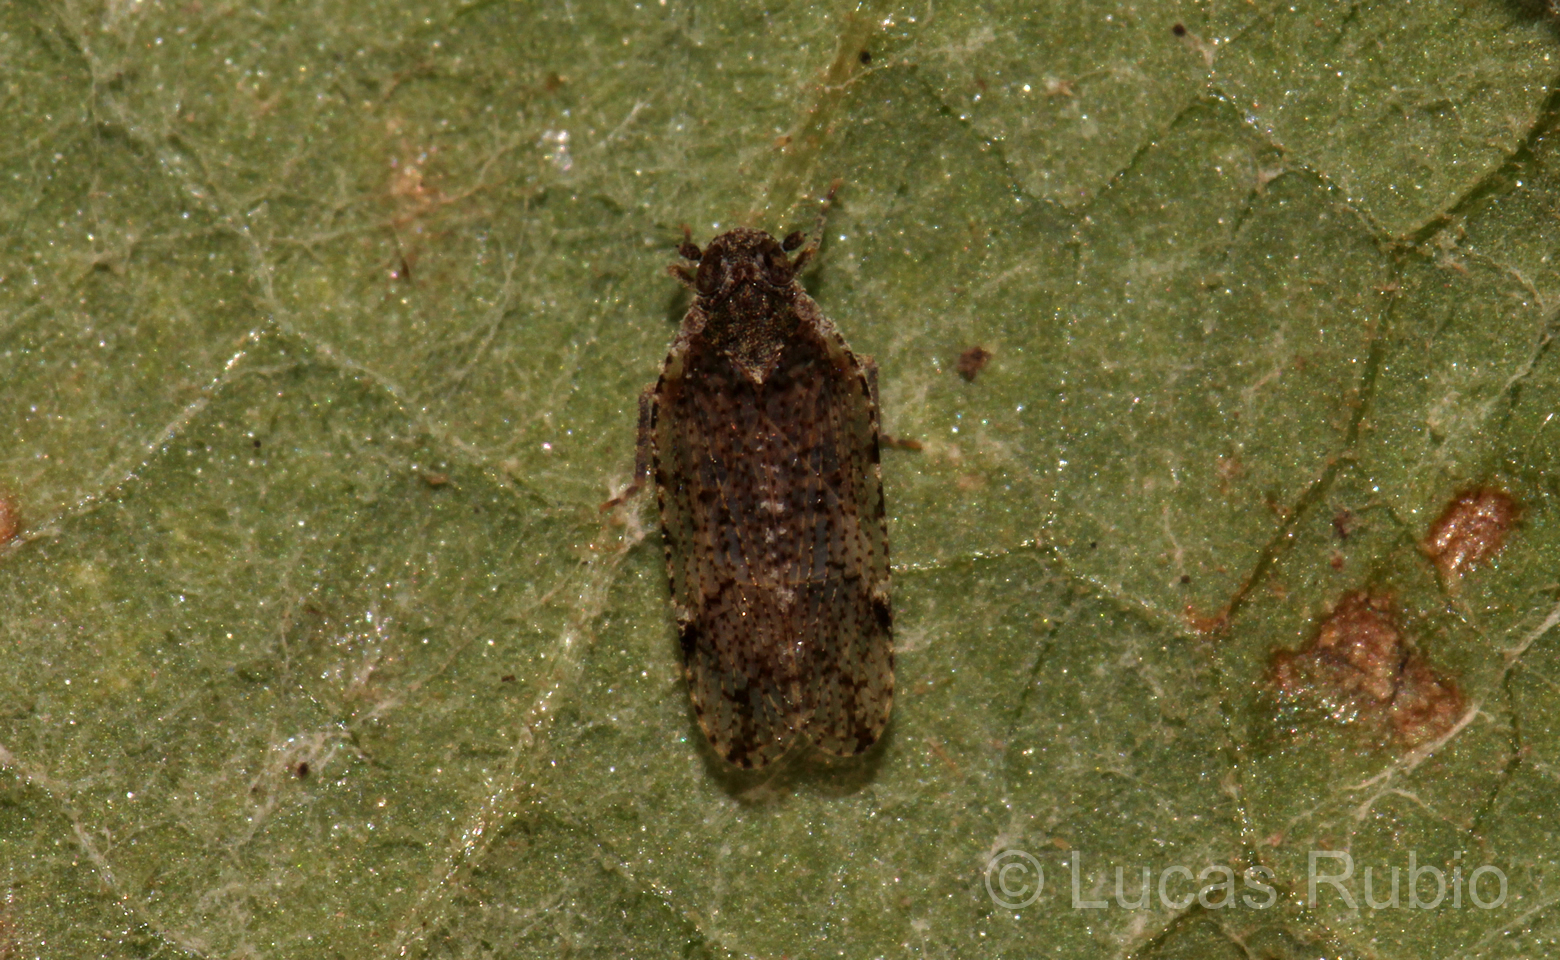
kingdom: Animalia
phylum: Arthropoda
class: Insecta
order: Hemiptera
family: Cixiidae
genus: Cixiosoma
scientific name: Cixiosoma bonaerense
